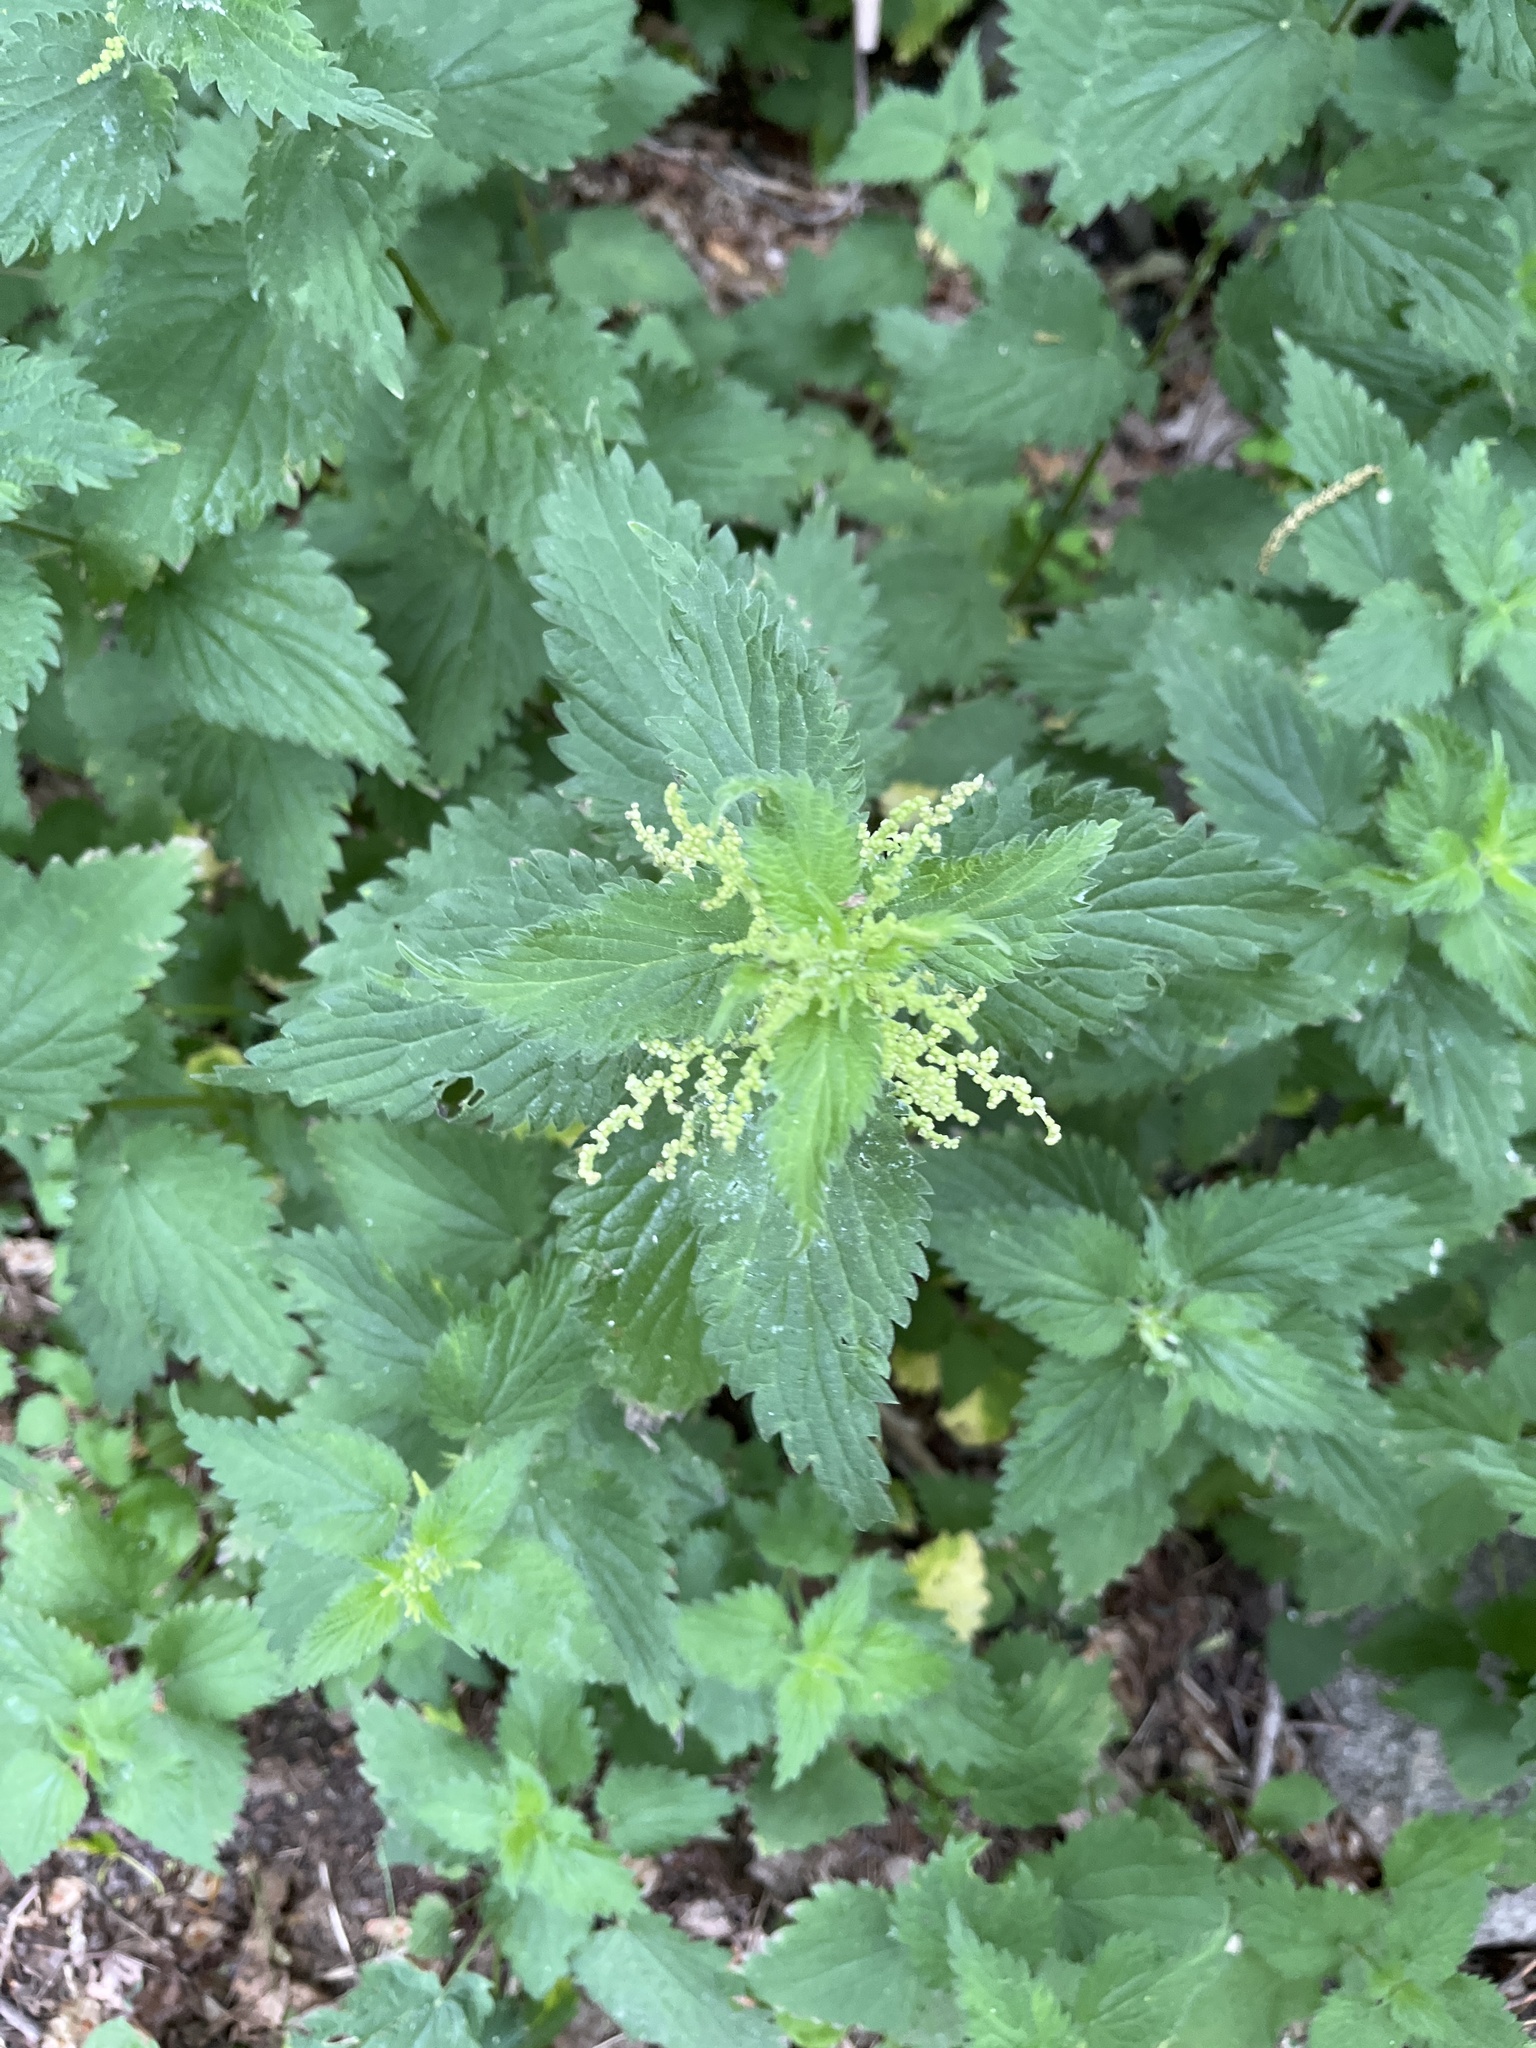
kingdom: Plantae
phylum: Tracheophyta
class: Magnoliopsida
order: Rosales
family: Urticaceae
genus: Urtica
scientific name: Urtica dioica
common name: Common nettle
